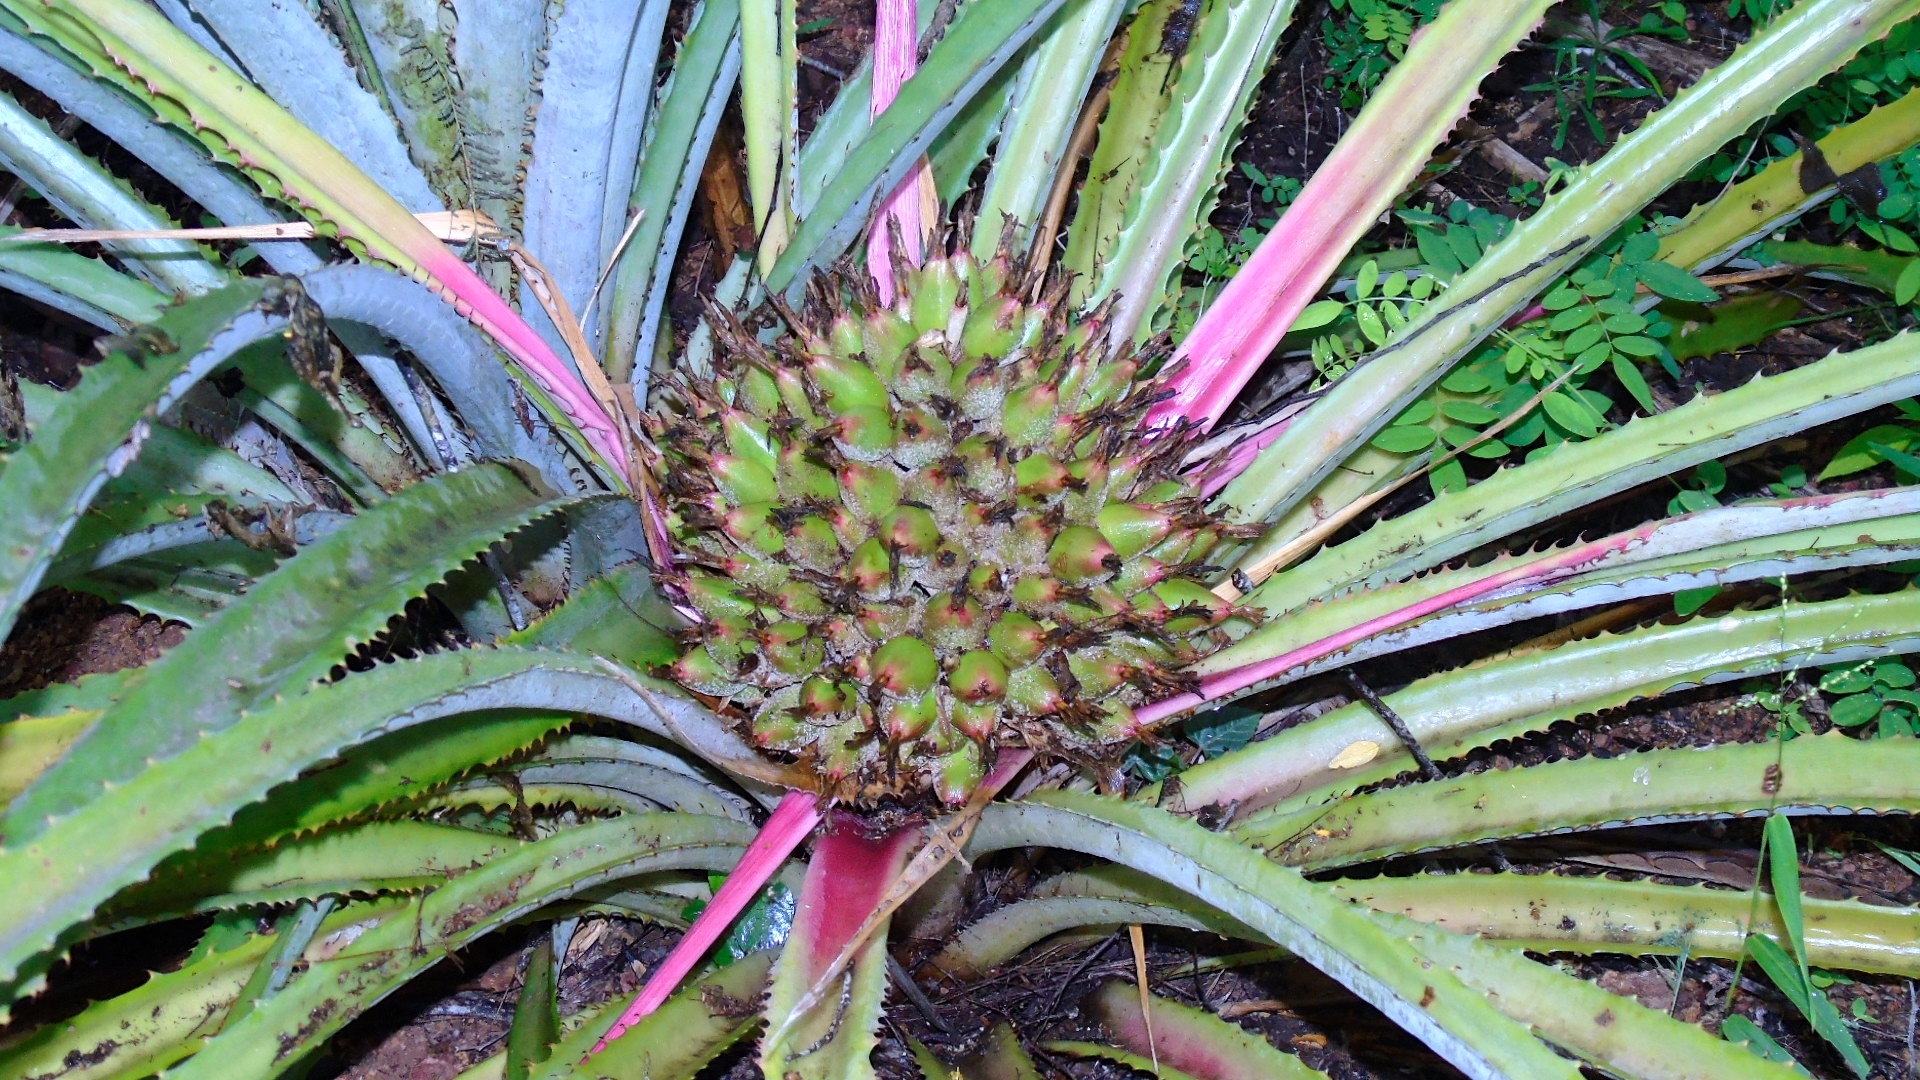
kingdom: Plantae
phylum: Tracheophyta
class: Liliopsida
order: Poales
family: Bromeliaceae
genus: Bromelia
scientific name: Bromelia hemisphaerica
